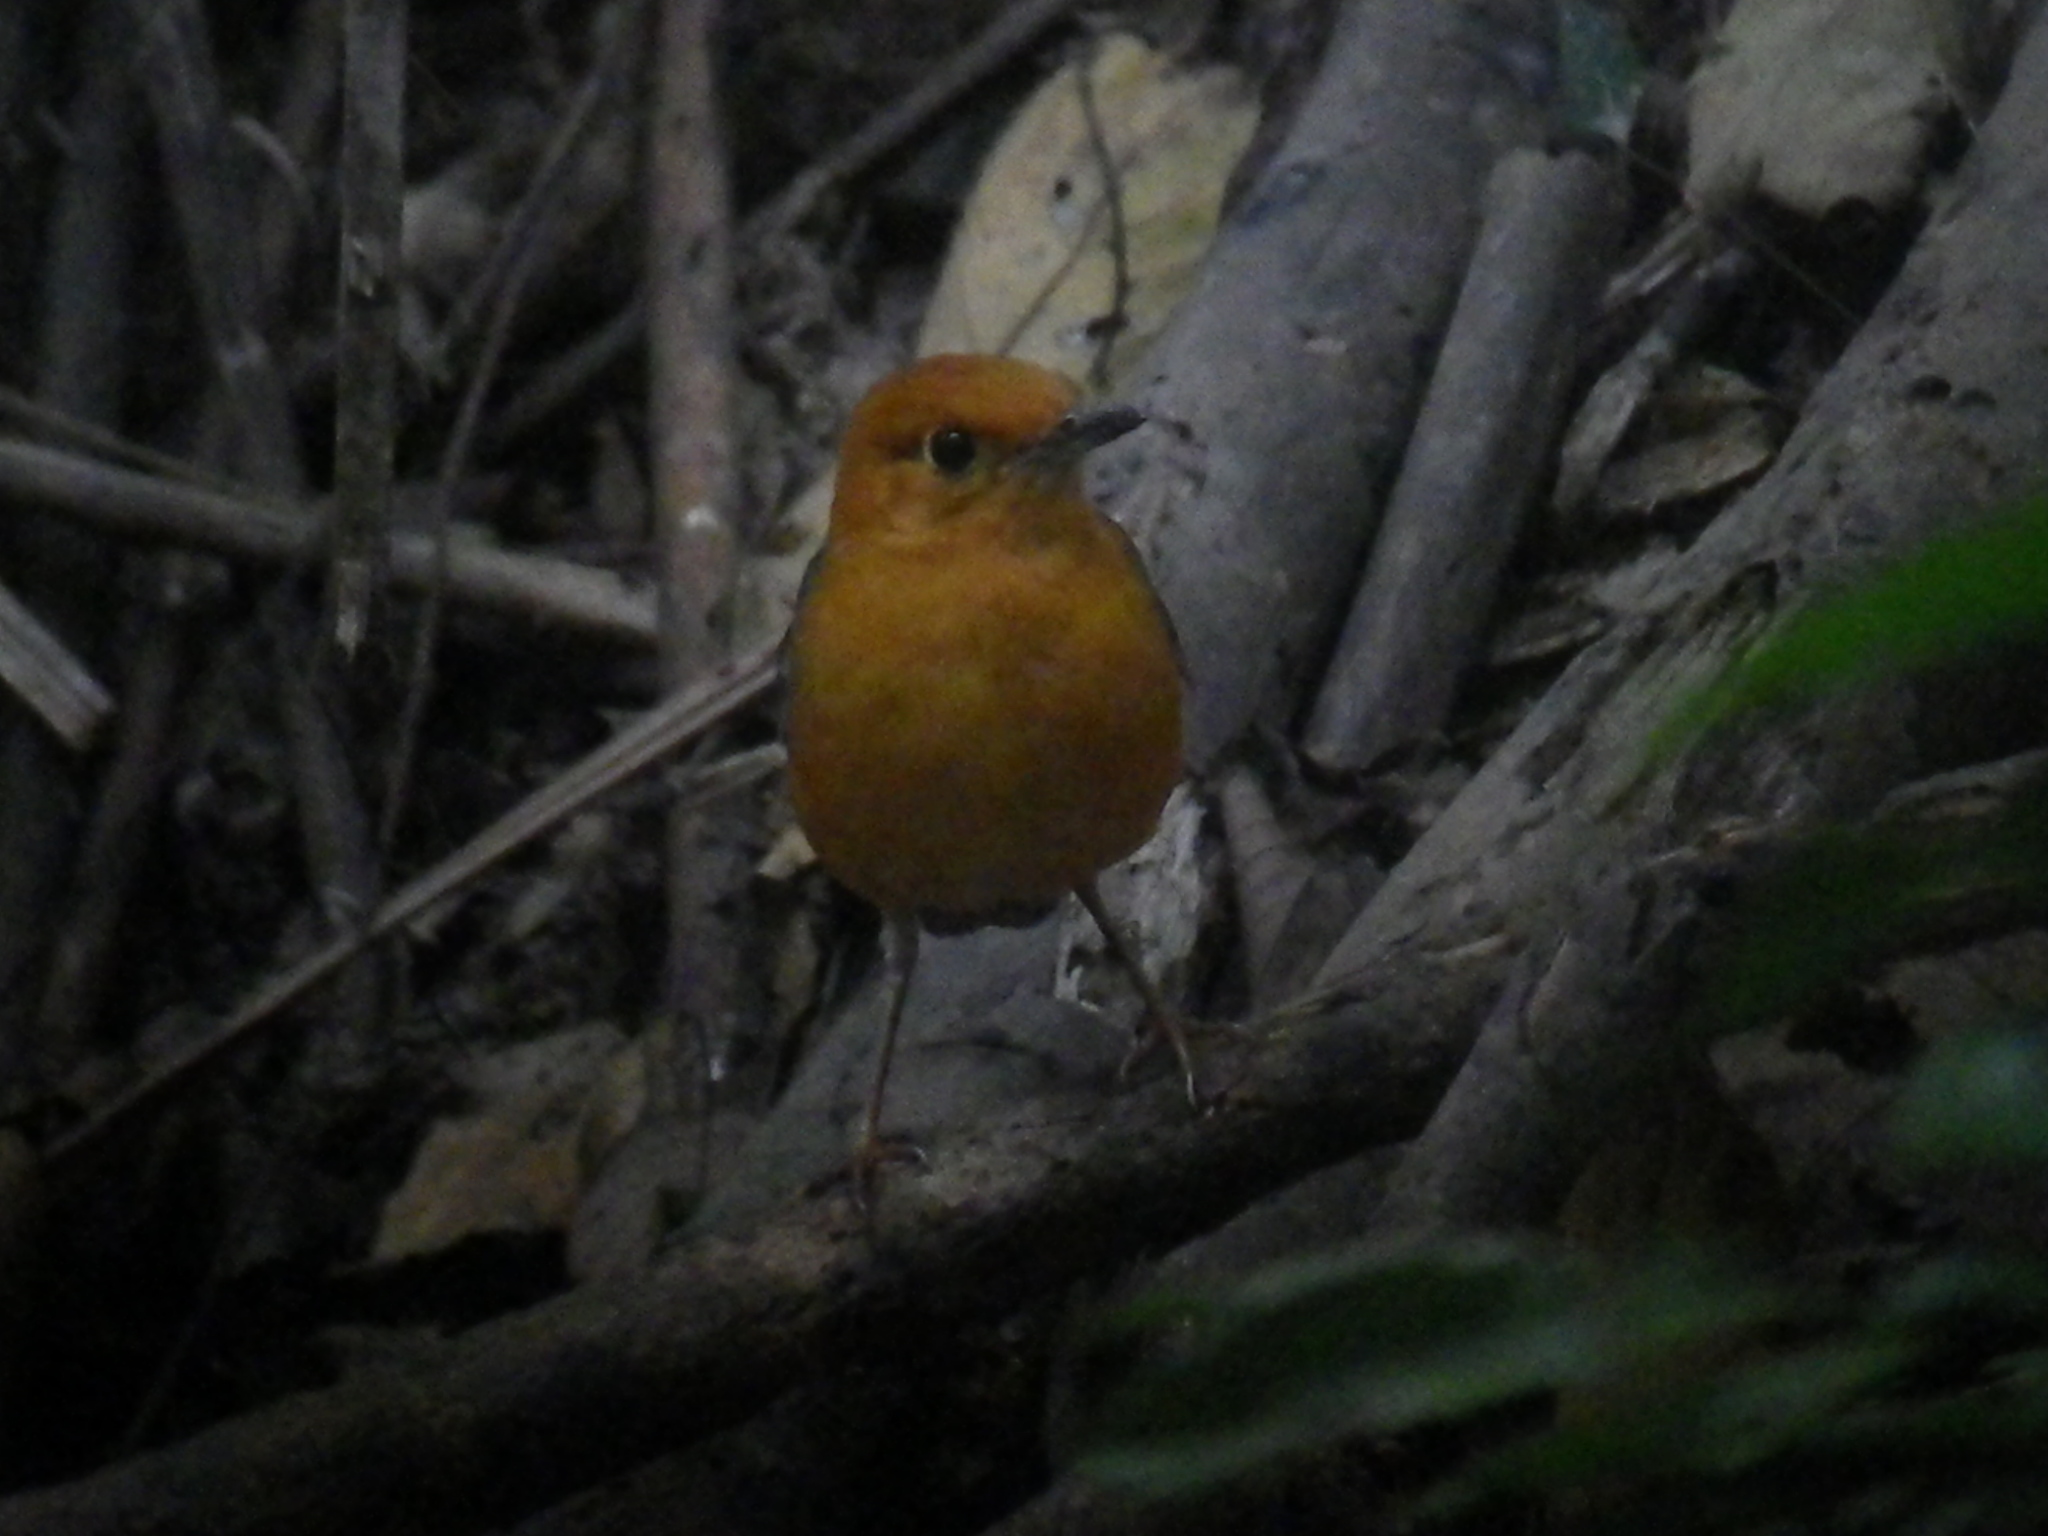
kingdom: Animalia
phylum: Chordata
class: Aves
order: Passeriformes
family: Turdidae
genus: Geokichla
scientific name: Geokichla citrina
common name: Orange-headed thrush
